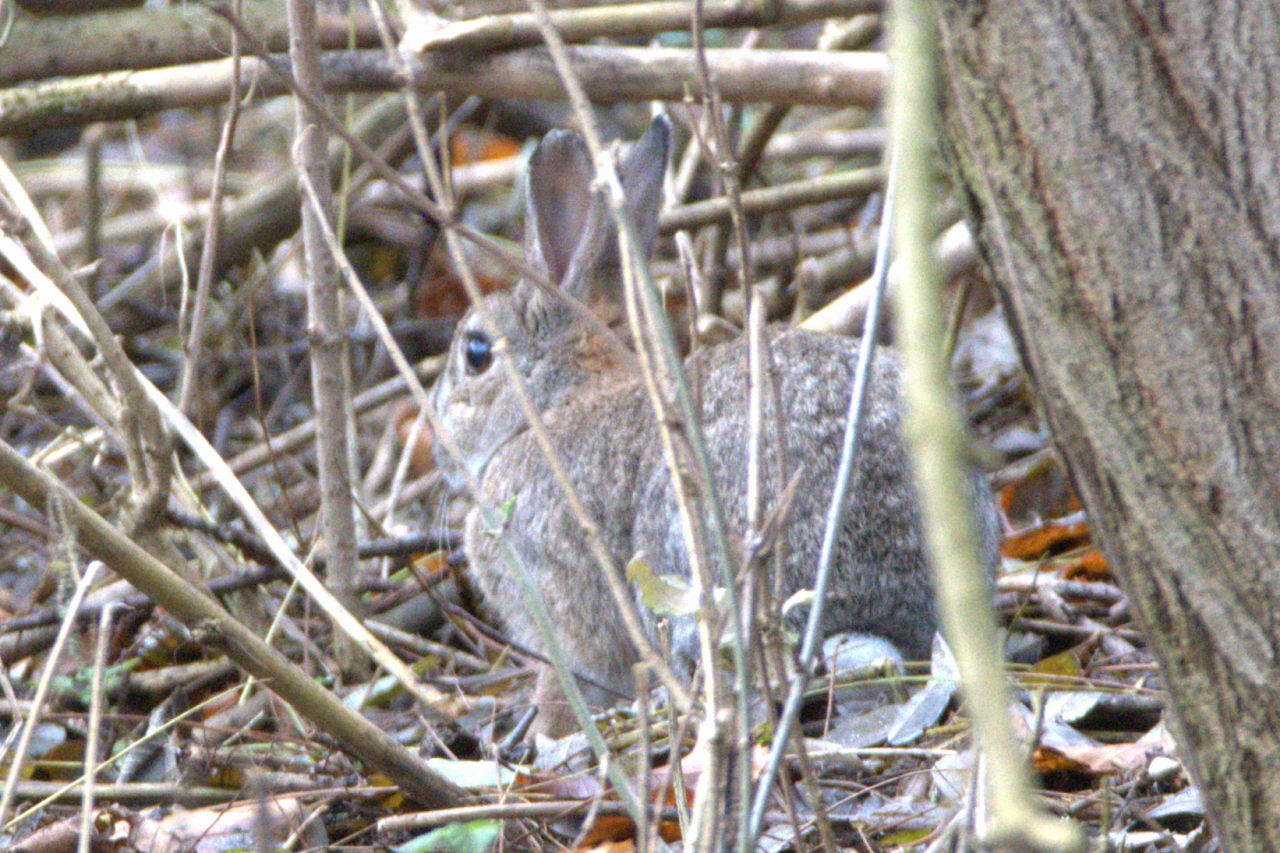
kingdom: Animalia
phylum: Chordata
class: Mammalia
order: Lagomorpha
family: Leporidae
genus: Oryctolagus
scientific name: Oryctolagus cuniculus
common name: European rabbit
